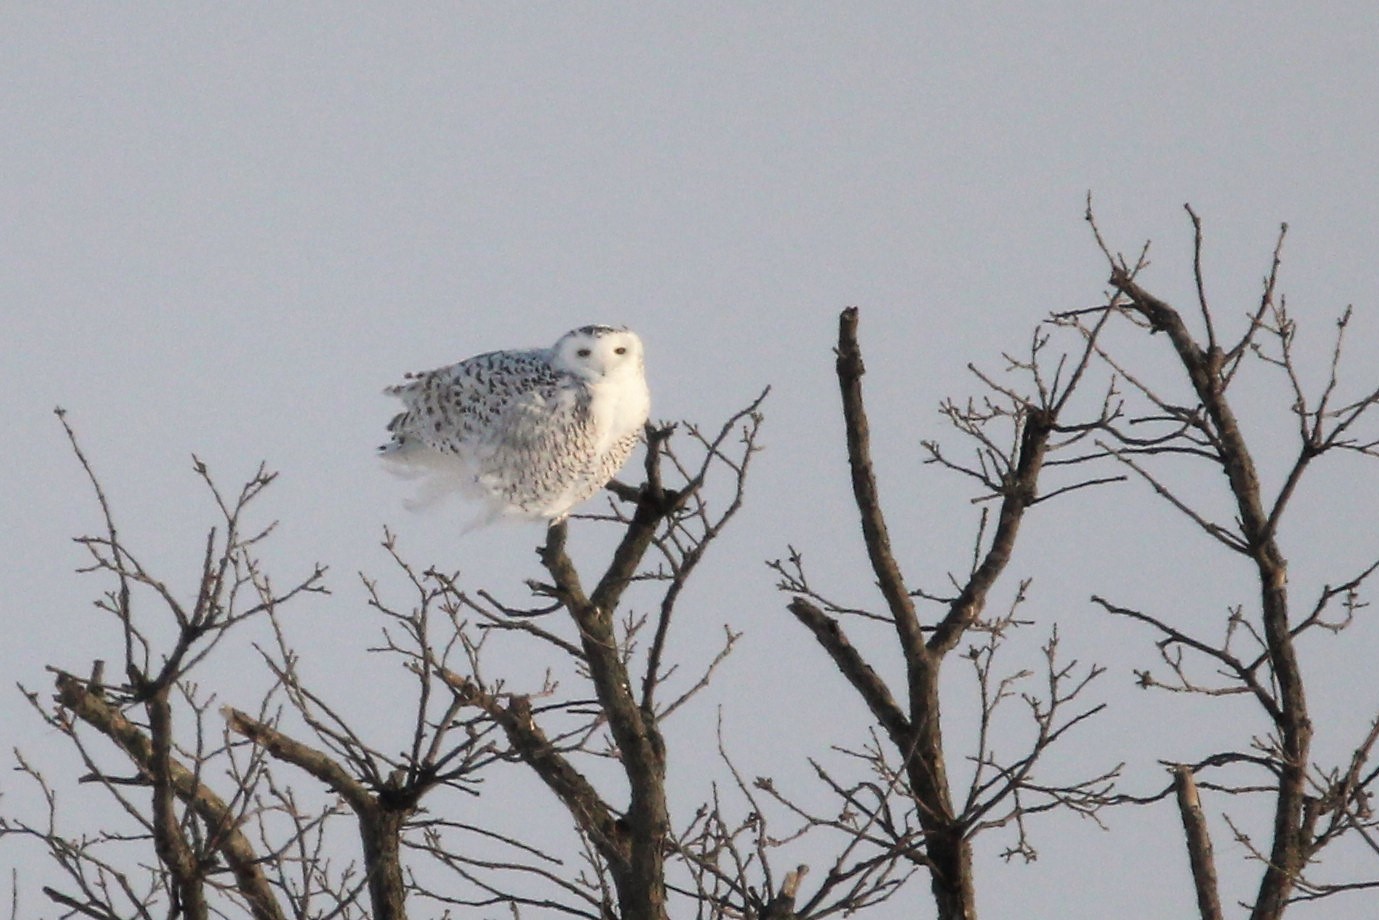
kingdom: Animalia
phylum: Chordata
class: Aves
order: Strigiformes
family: Strigidae
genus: Bubo
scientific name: Bubo scandiacus
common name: Snowy owl
